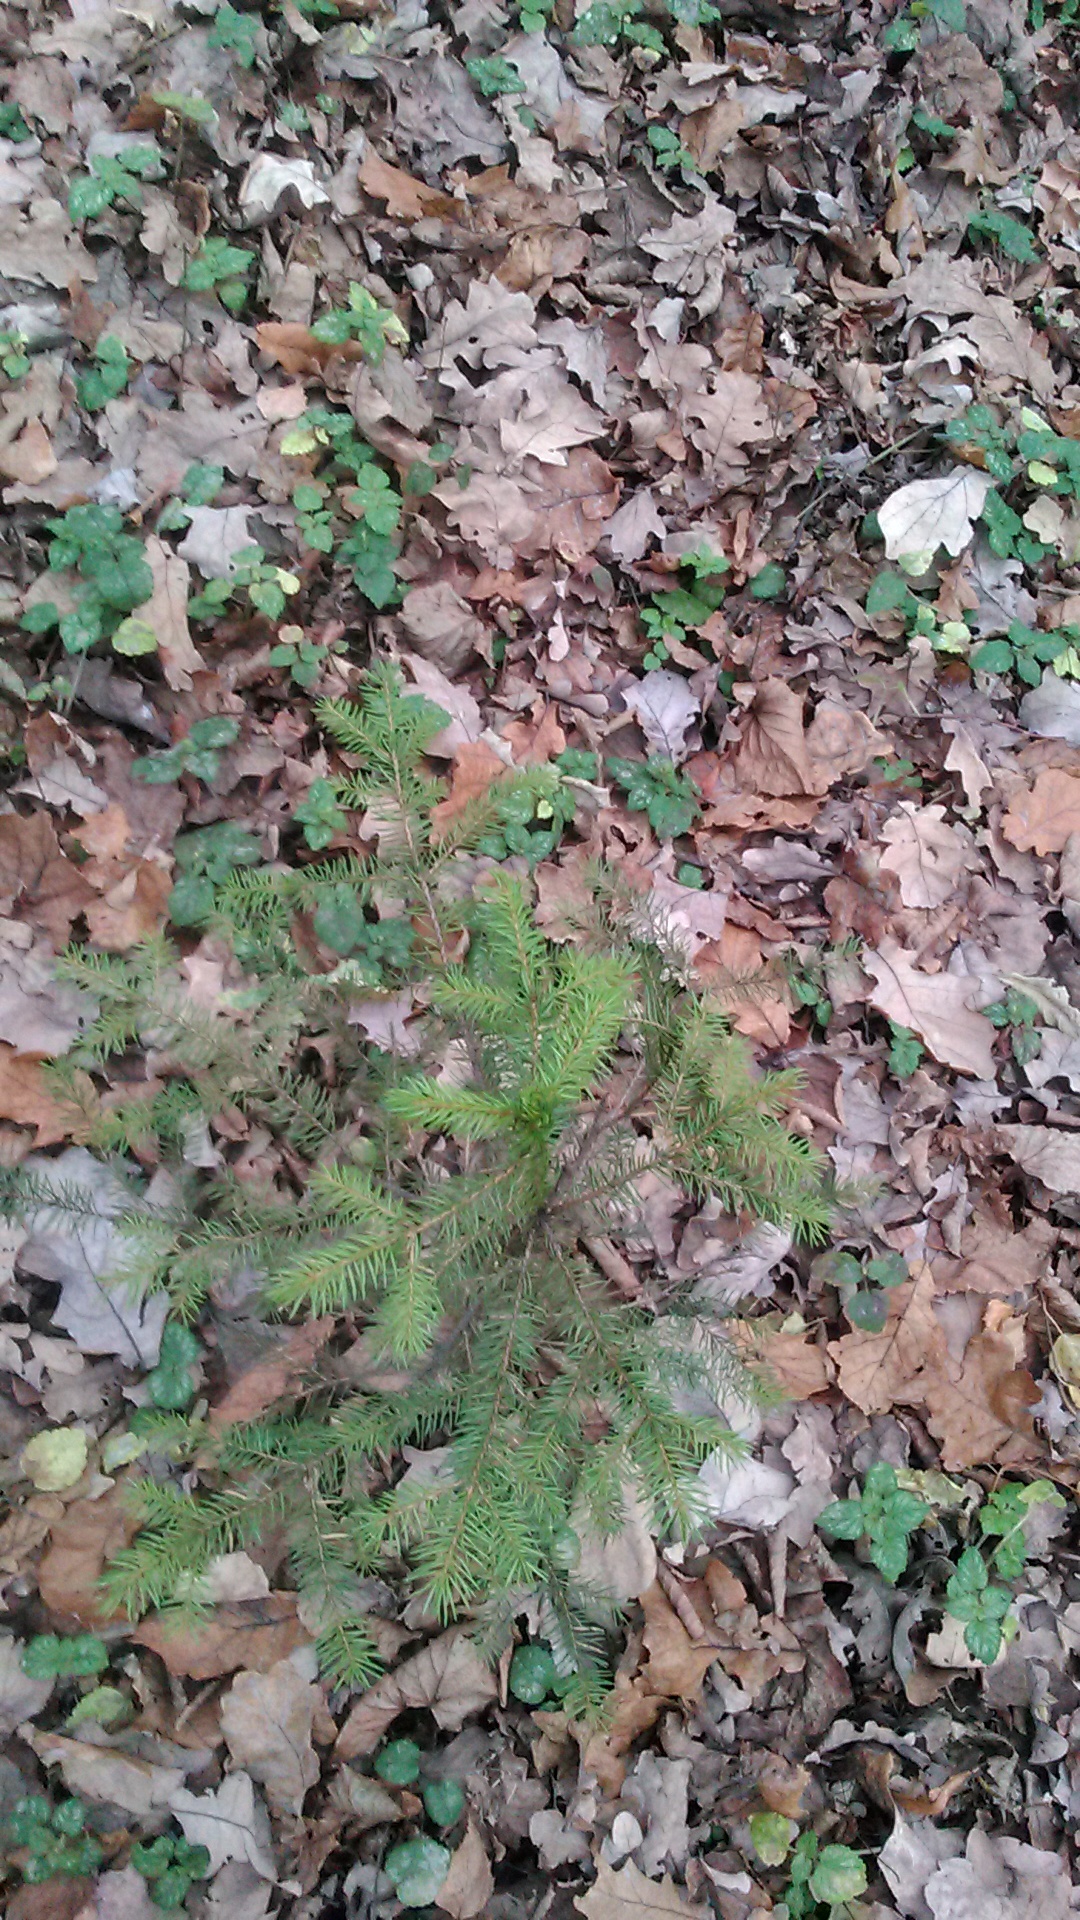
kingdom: Plantae
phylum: Tracheophyta
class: Pinopsida
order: Pinales
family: Pinaceae
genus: Picea
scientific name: Picea abies
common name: Norway spruce
